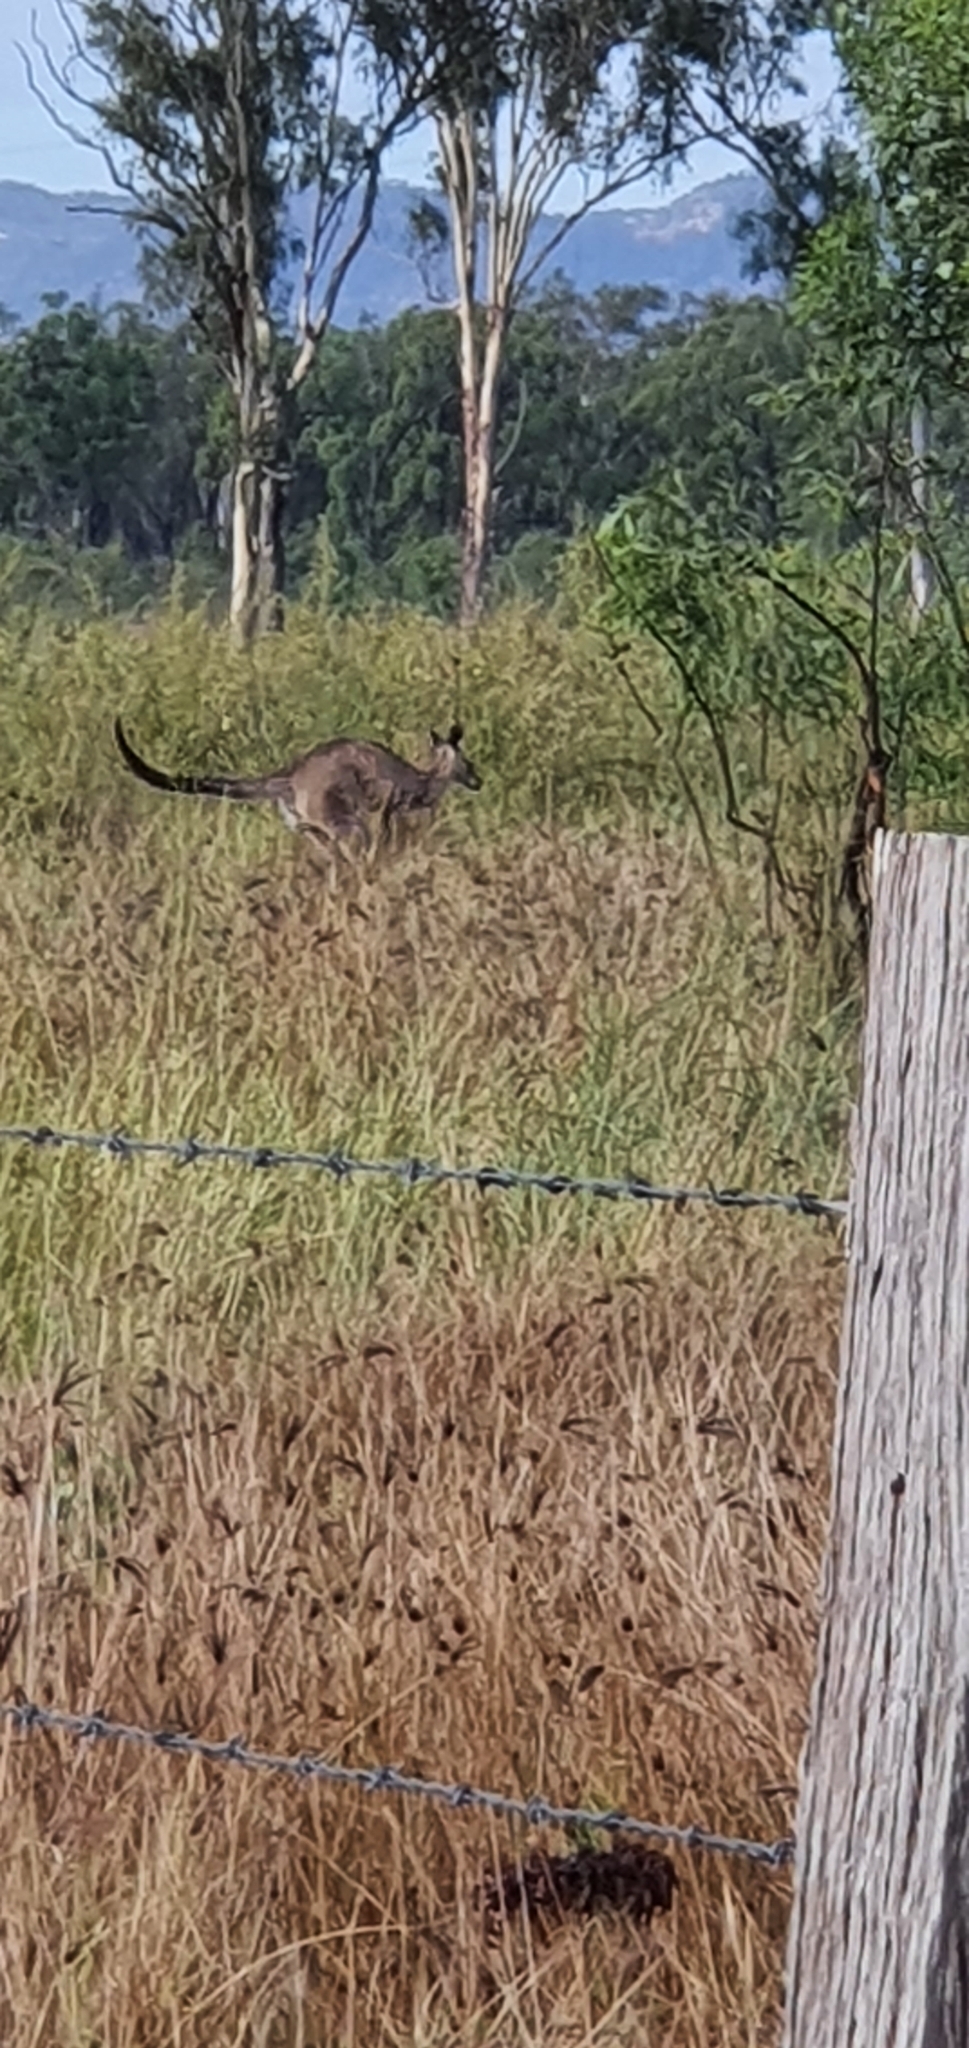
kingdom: Animalia
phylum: Chordata
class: Mammalia
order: Diprotodontia
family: Macropodidae
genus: Macropus
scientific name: Macropus giganteus
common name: Eastern grey kangaroo
